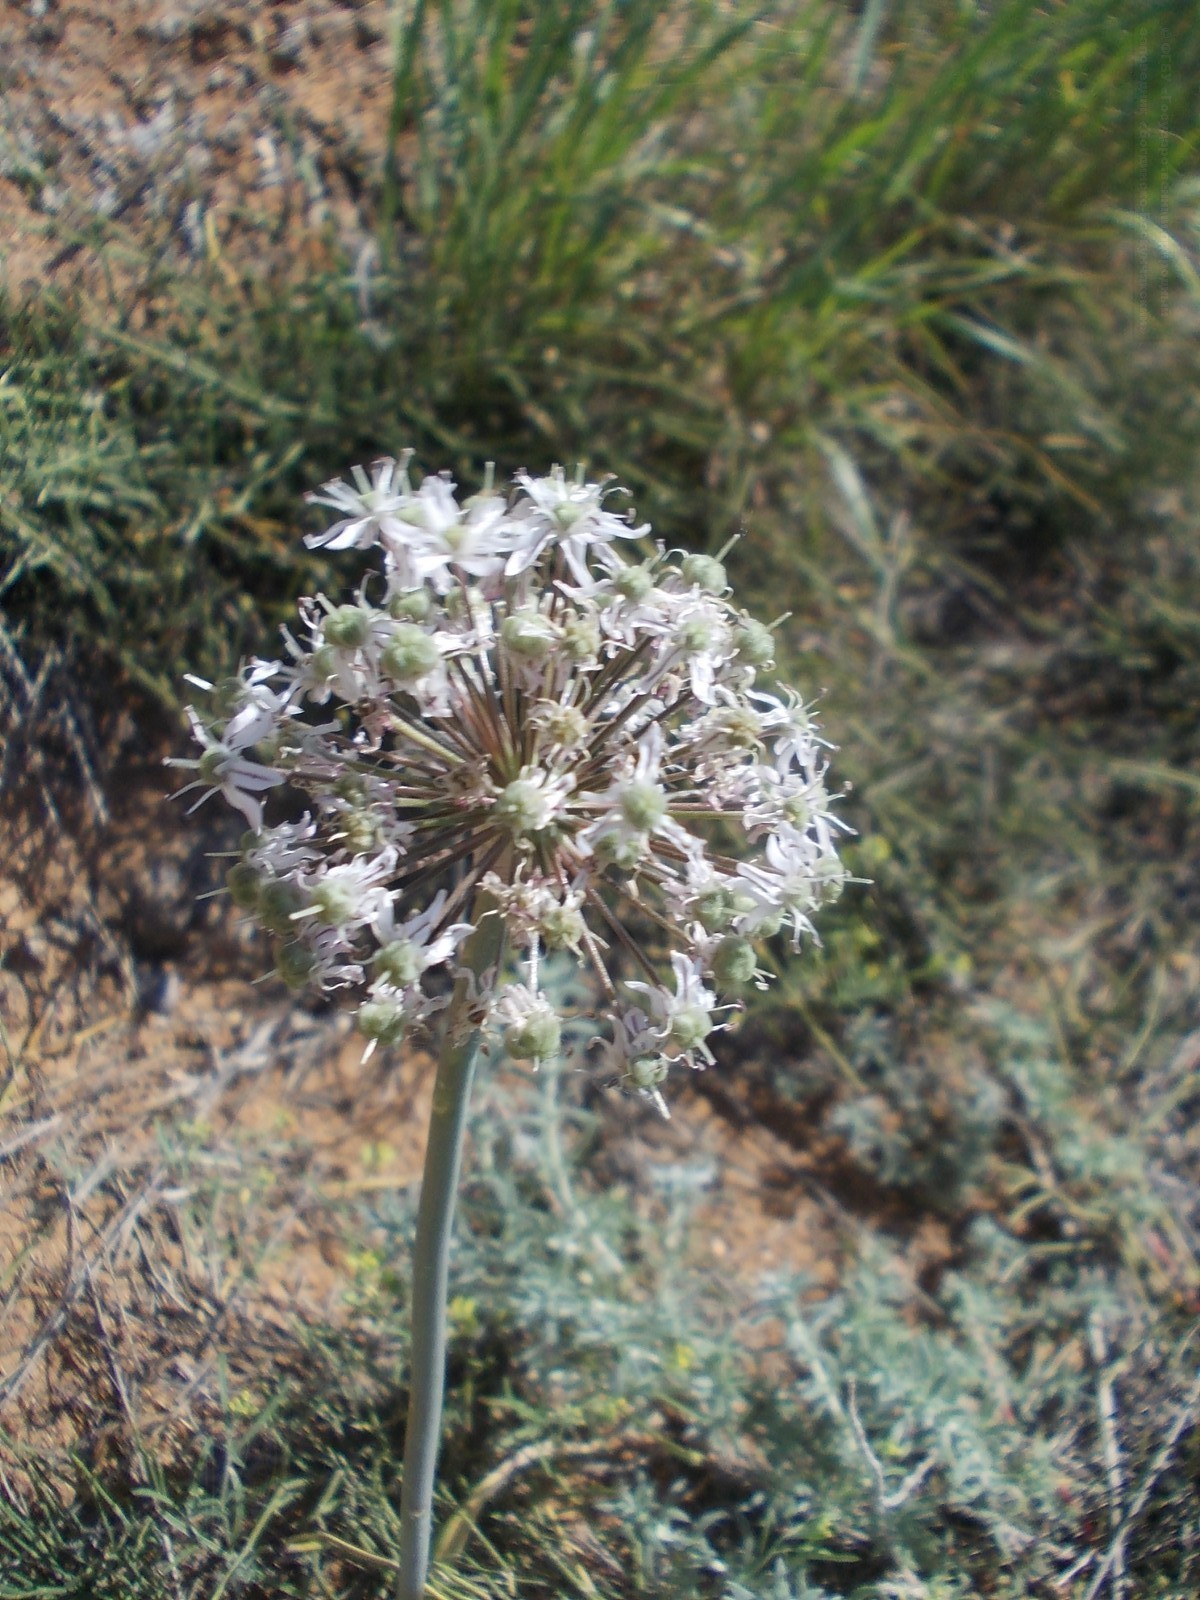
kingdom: Plantae
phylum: Tracheophyta
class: Liliopsida
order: Asparagales
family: Amaryllidaceae
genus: Allium
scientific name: Allium tulipifolium
